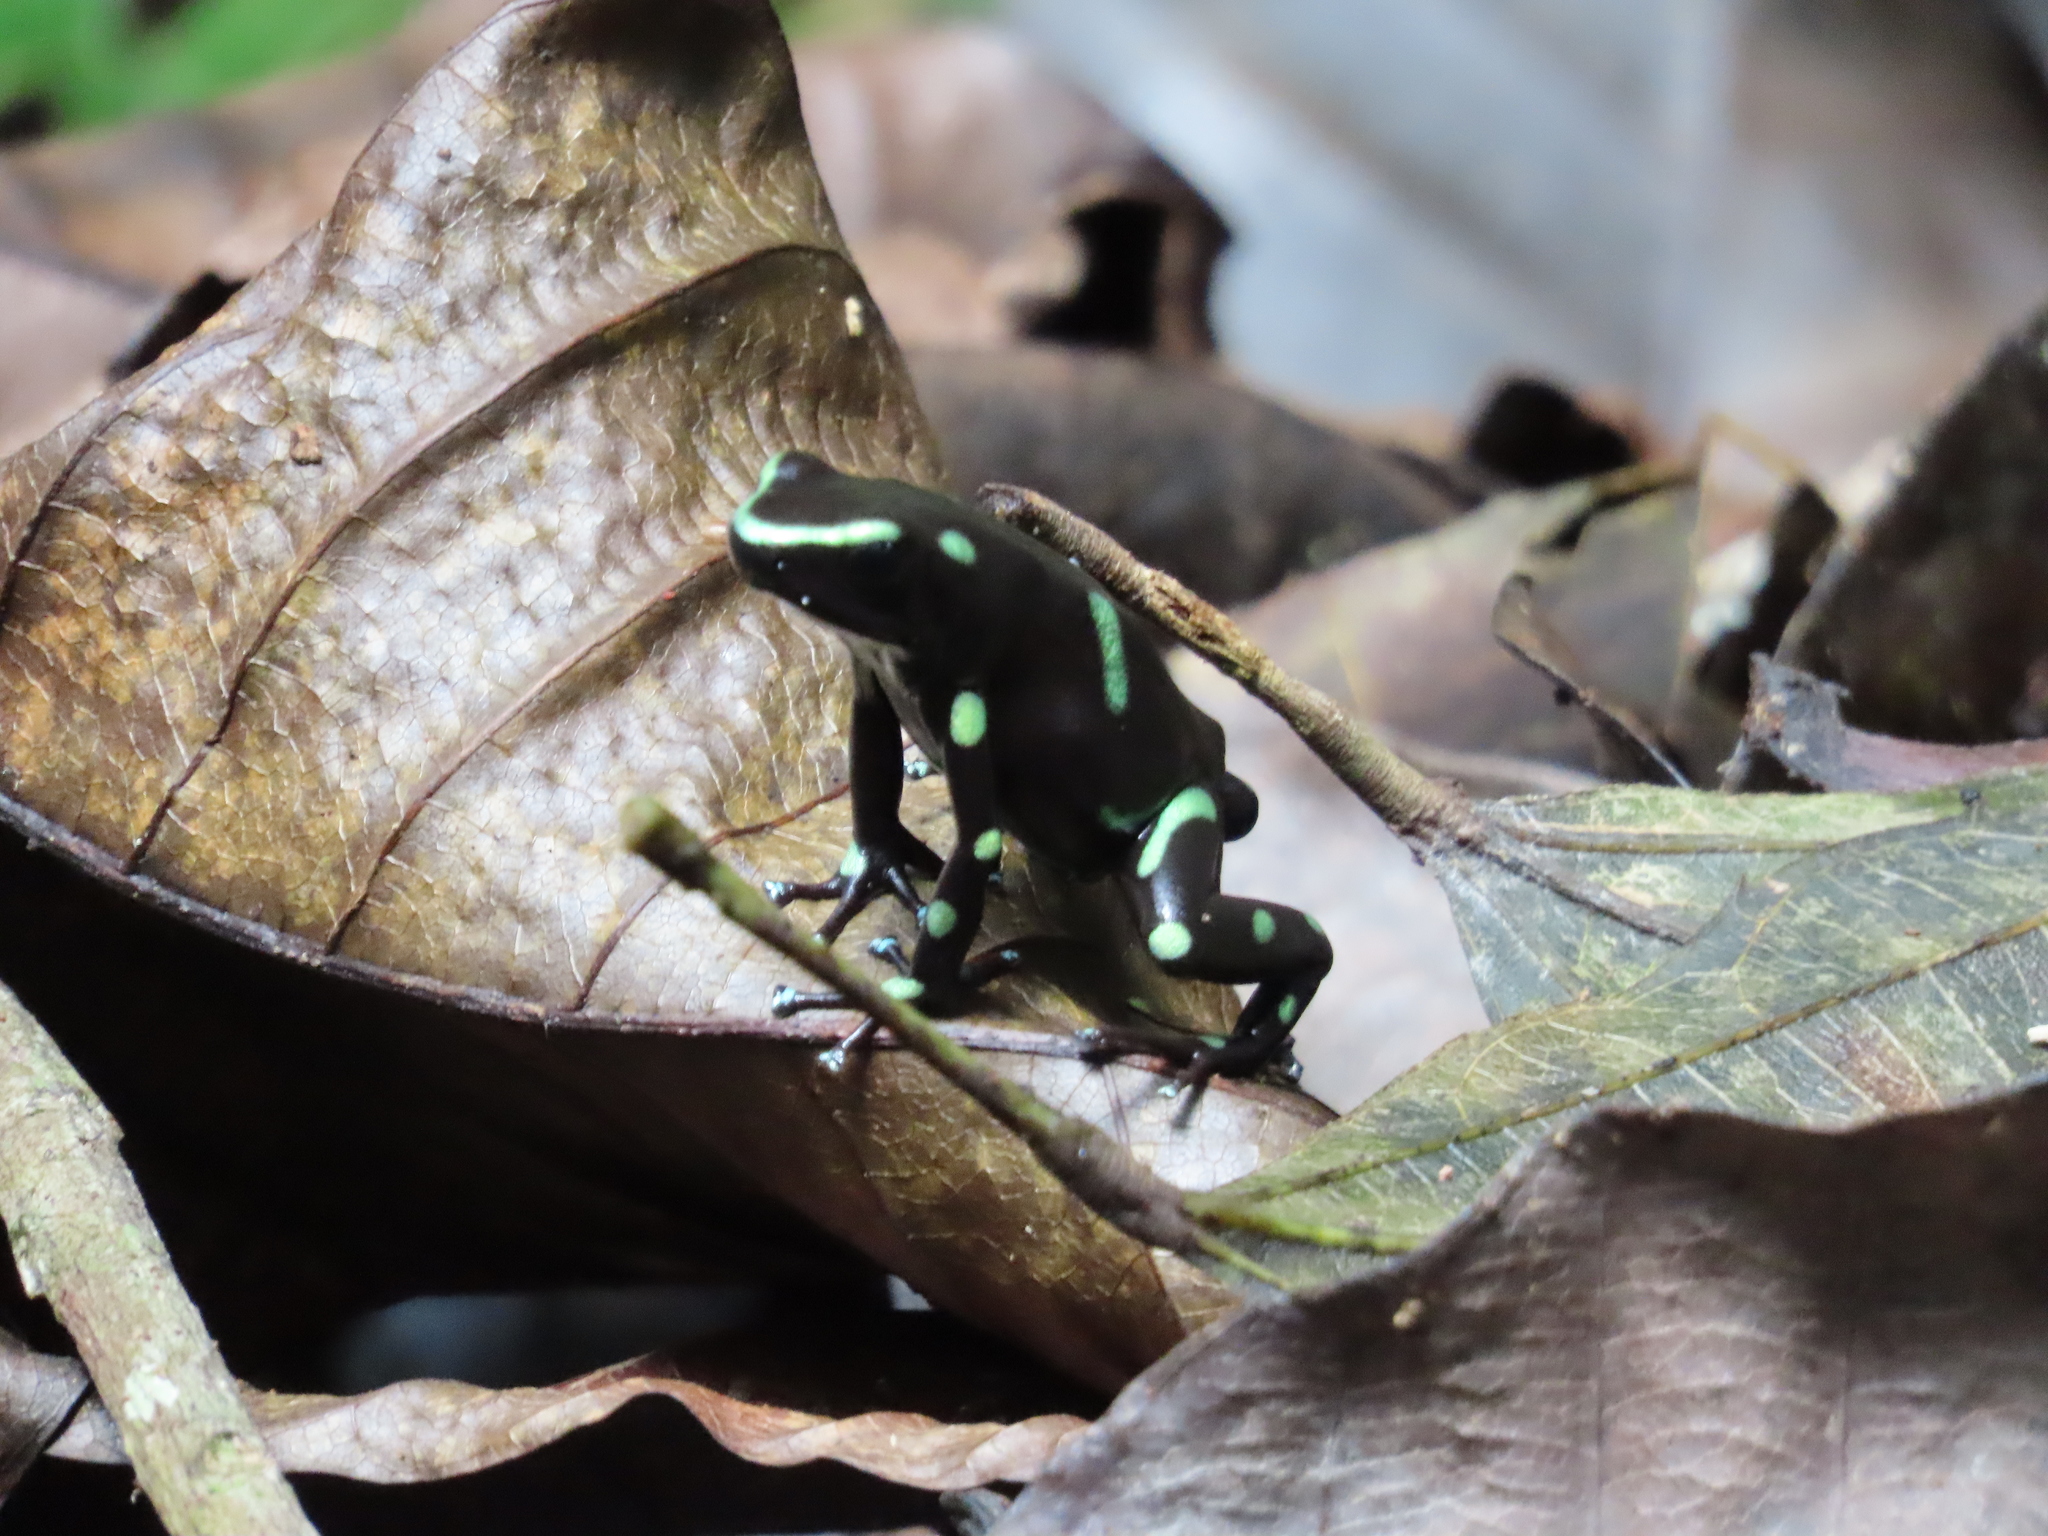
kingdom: Animalia
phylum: Chordata
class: Amphibia
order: Anura
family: Dendrobatidae
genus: Dendrobates
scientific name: Dendrobates auratus
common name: Green and black poison dart frog
